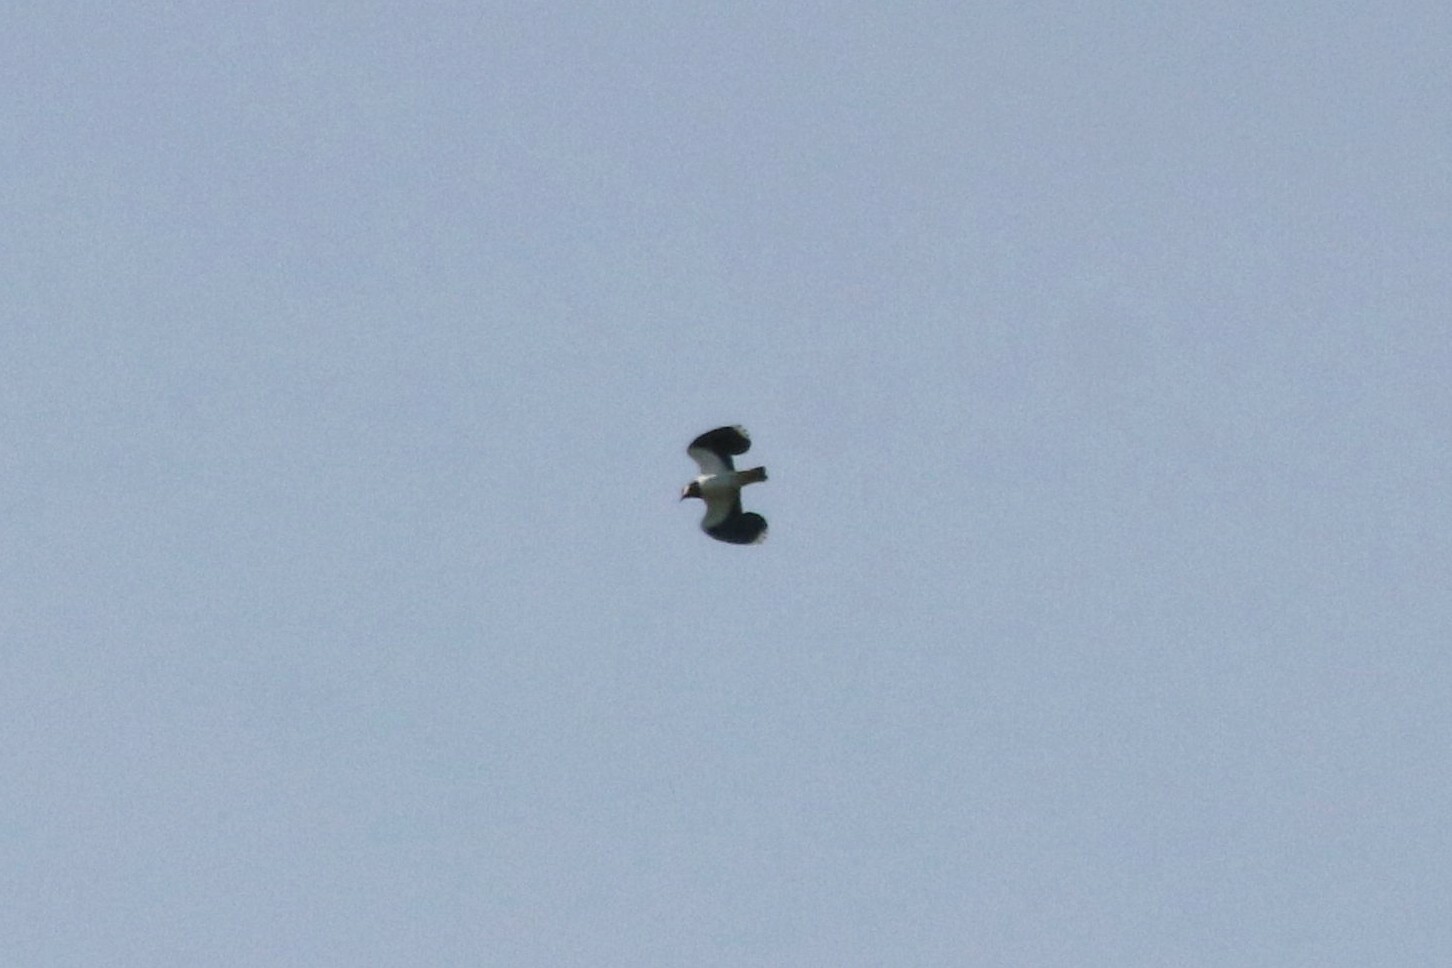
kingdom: Animalia
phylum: Chordata
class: Aves
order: Charadriiformes
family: Charadriidae
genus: Vanellus
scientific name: Vanellus vanellus
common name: Northern lapwing
